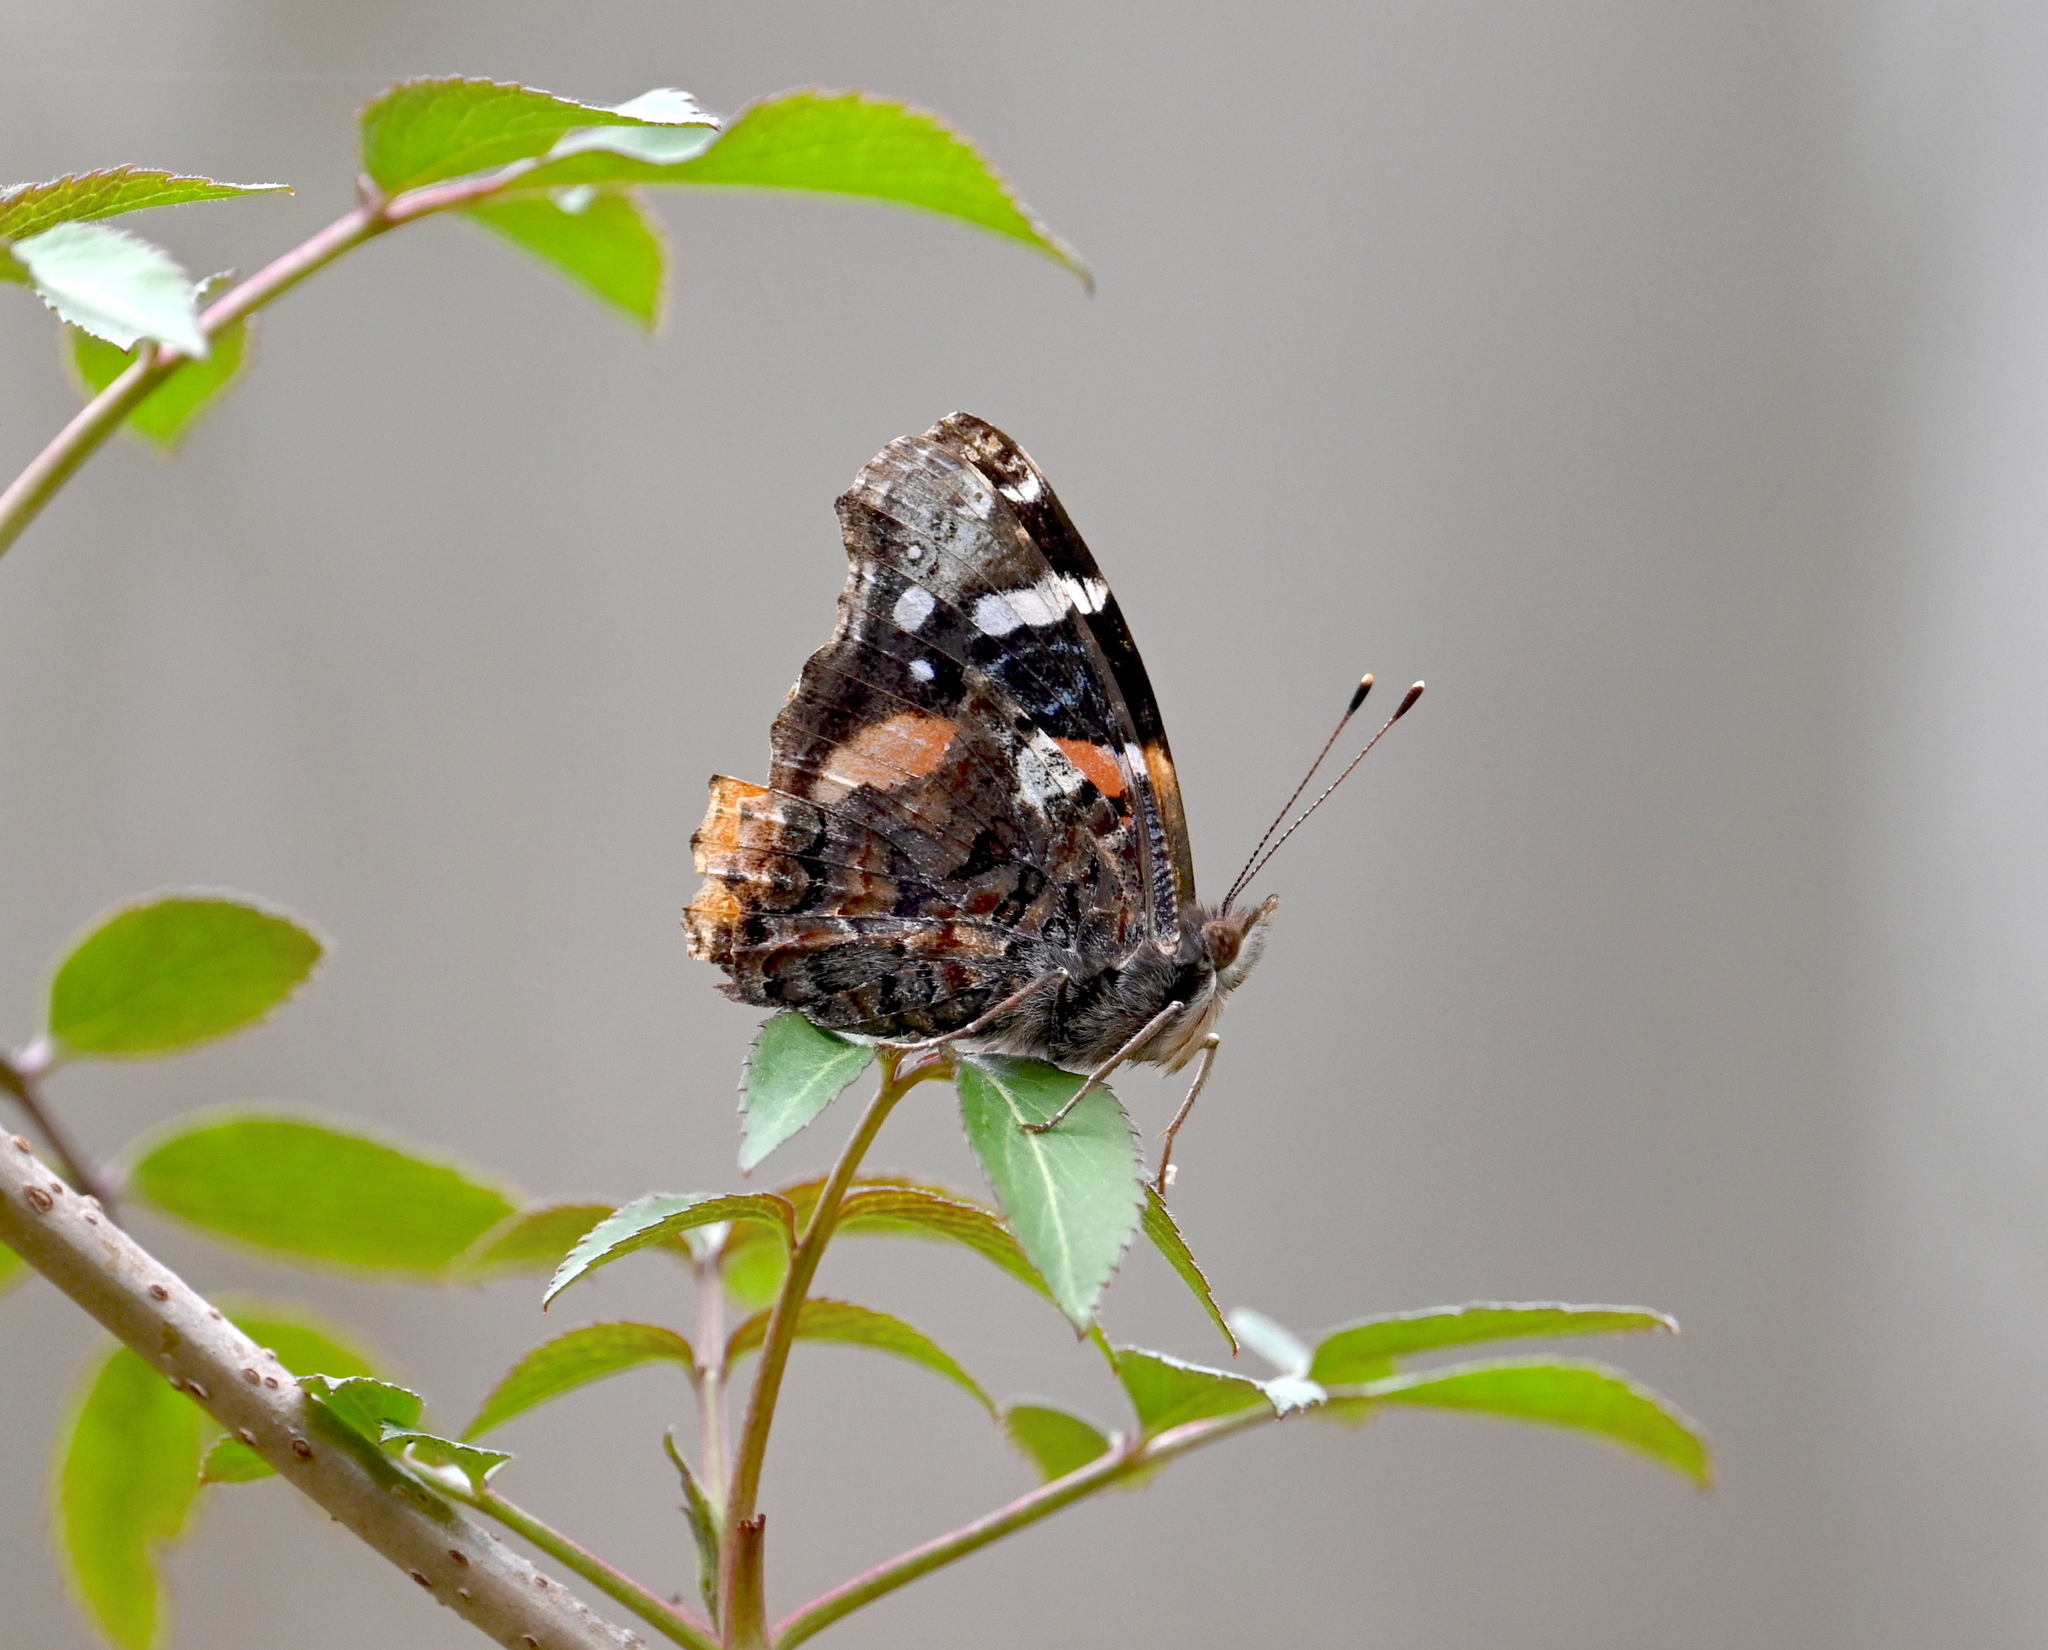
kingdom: Animalia
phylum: Arthropoda
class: Insecta
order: Lepidoptera
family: Nymphalidae
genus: Vanessa
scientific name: Vanessa atalanta
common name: Red admiral
